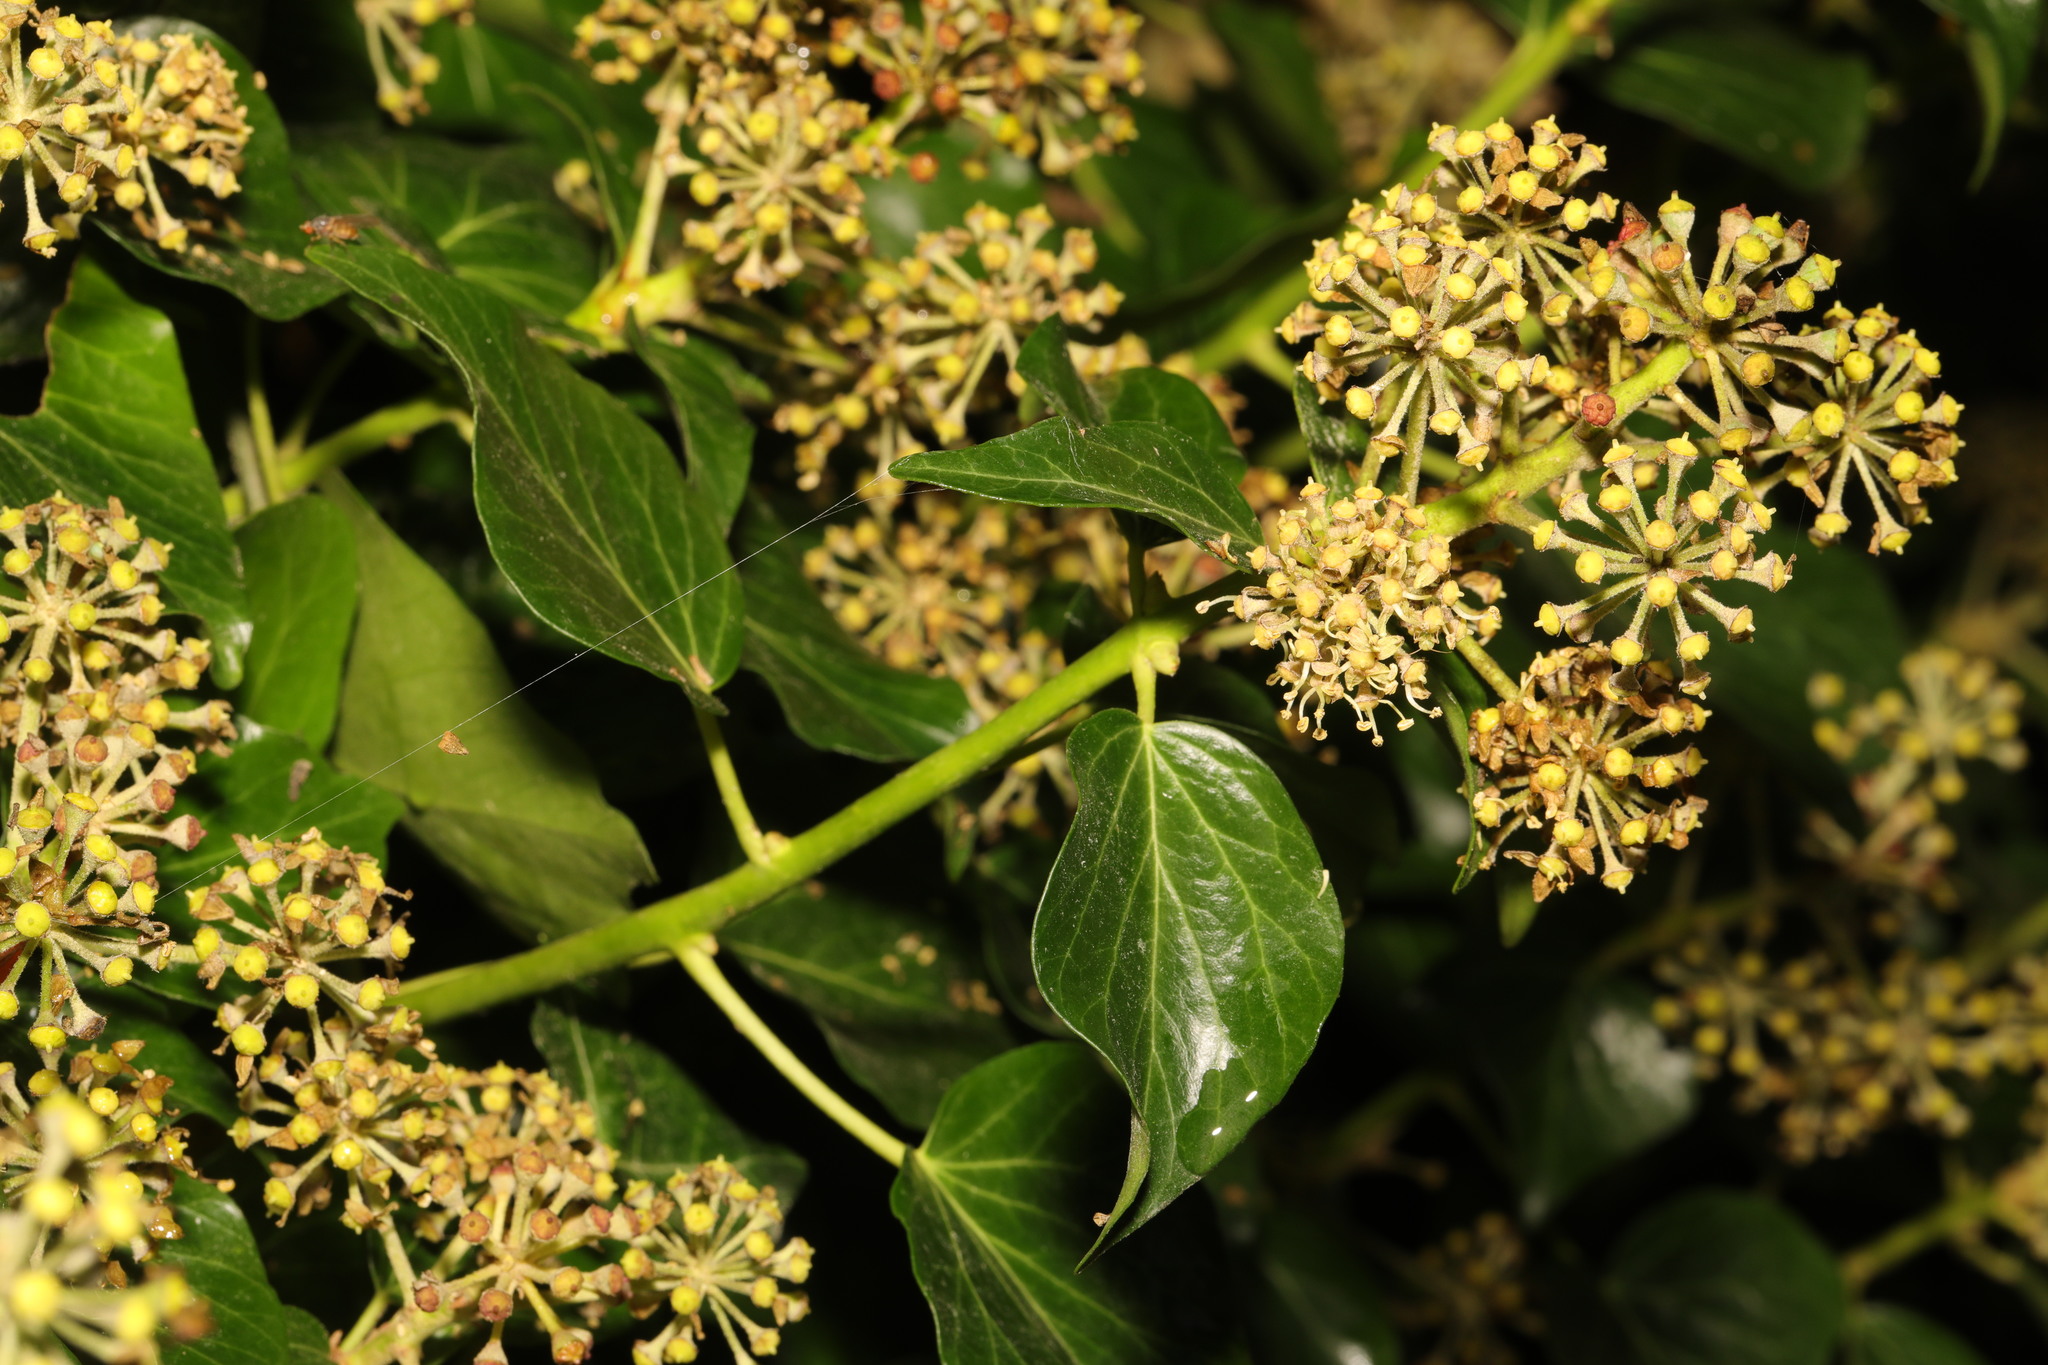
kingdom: Plantae
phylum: Tracheophyta
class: Magnoliopsida
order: Apiales
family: Araliaceae
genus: Hedera
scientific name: Hedera helix
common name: Ivy
